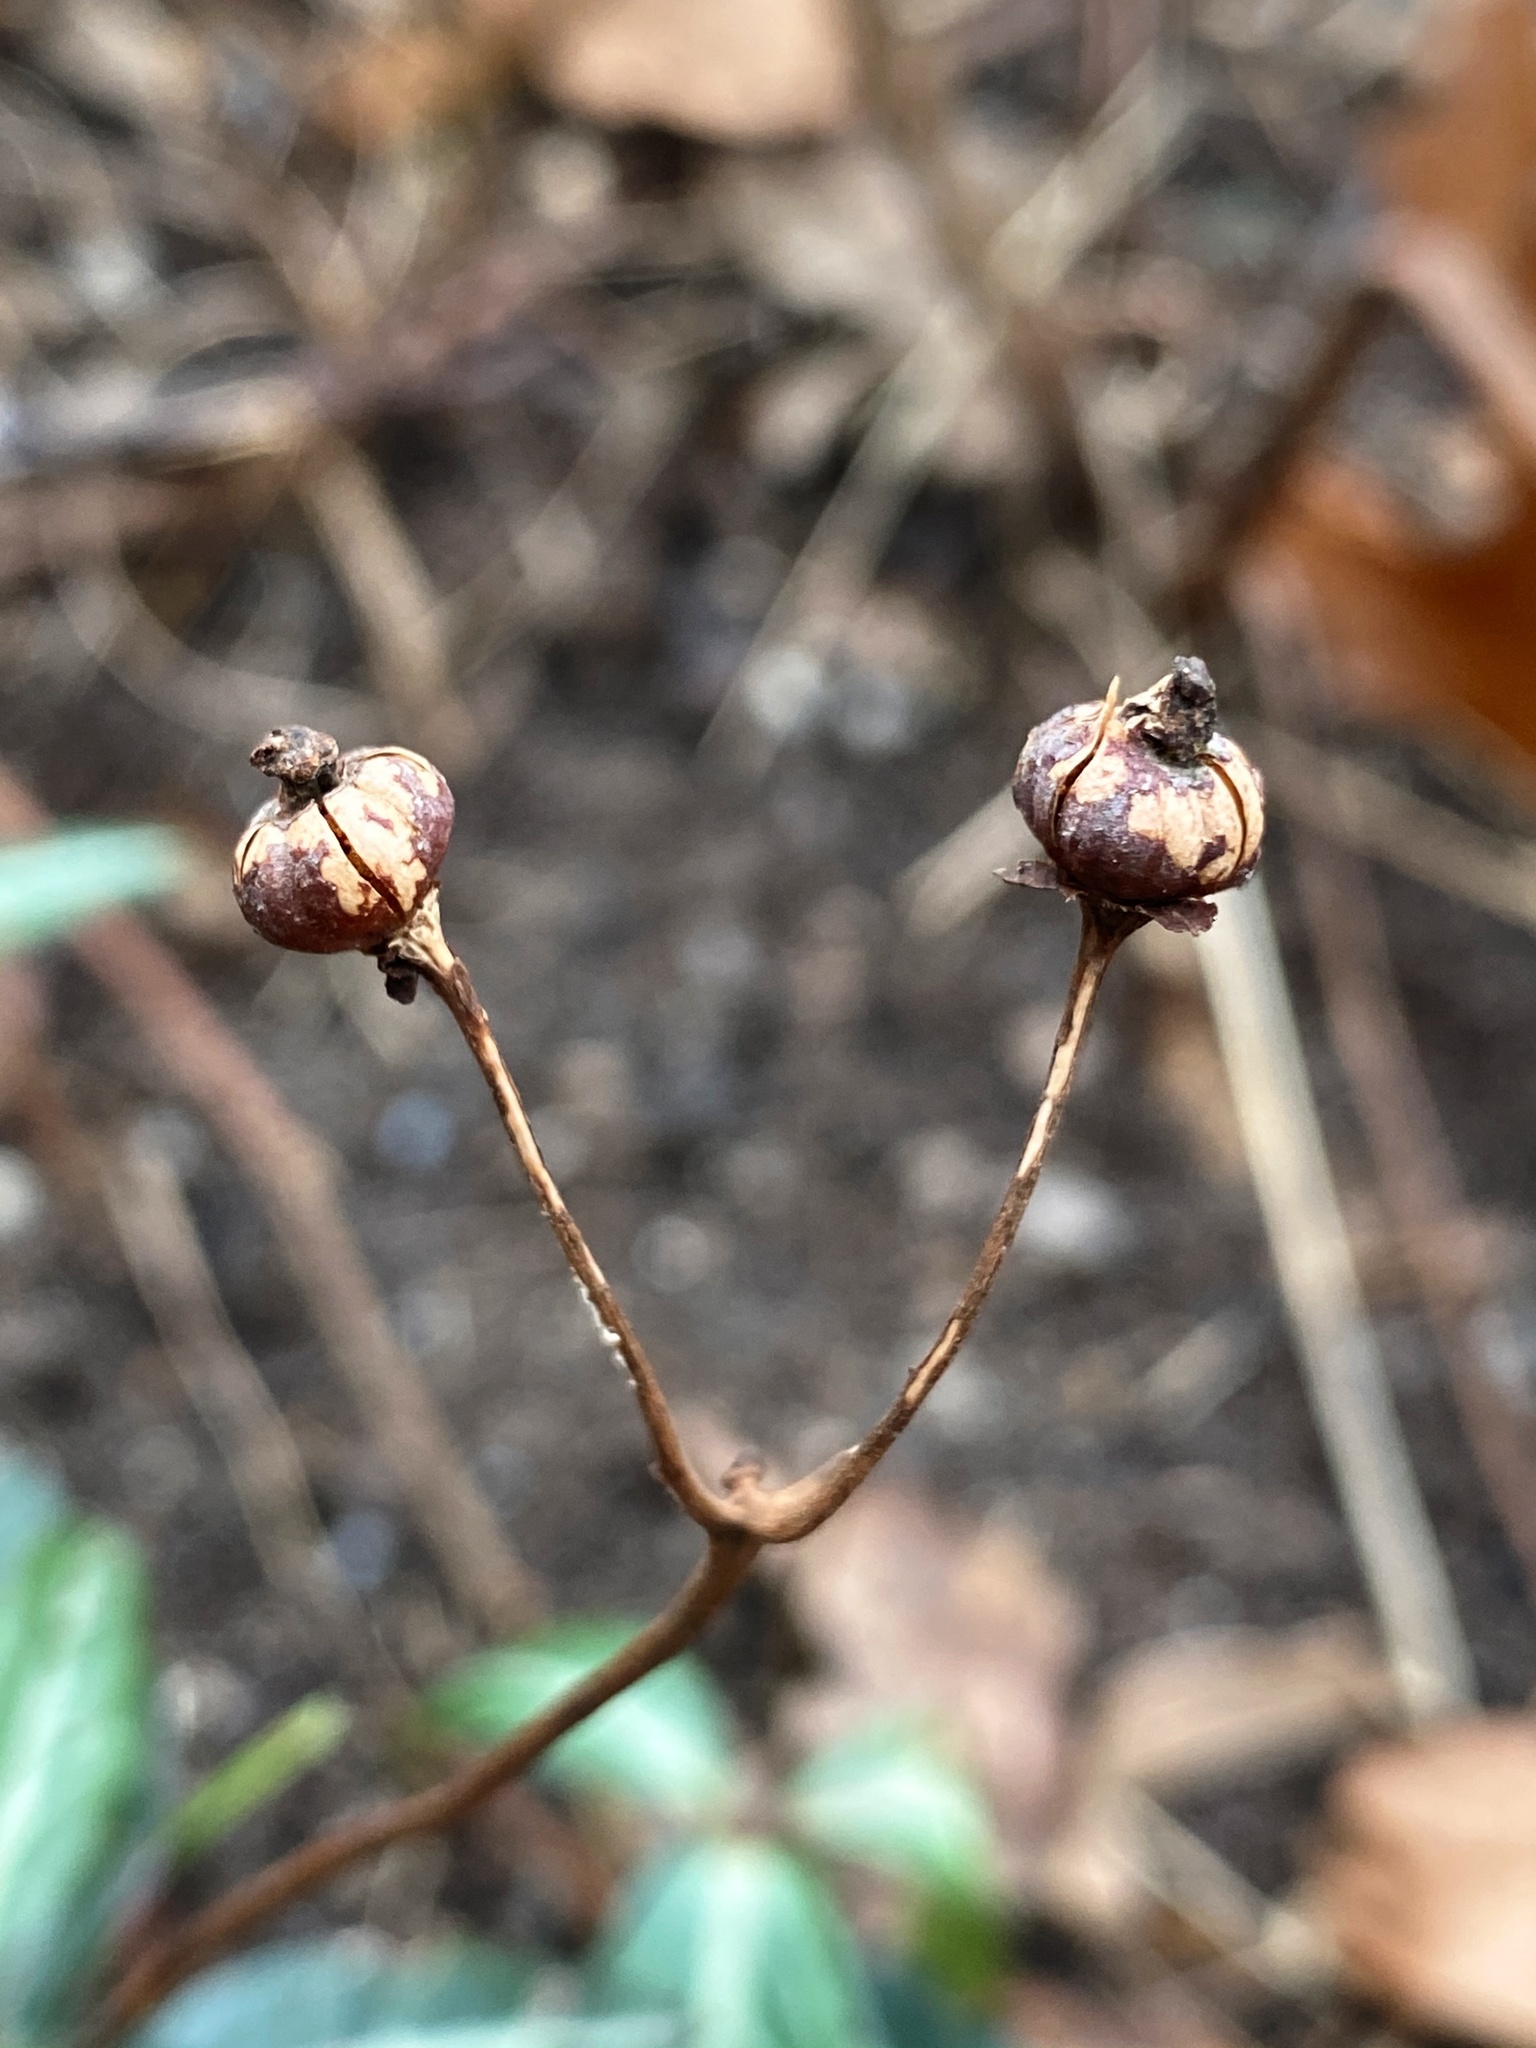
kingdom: Plantae
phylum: Tracheophyta
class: Magnoliopsida
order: Ericales
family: Ericaceae
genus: Chimaphila
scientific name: Chimaphila maculata
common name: Spotted pipsissewa
